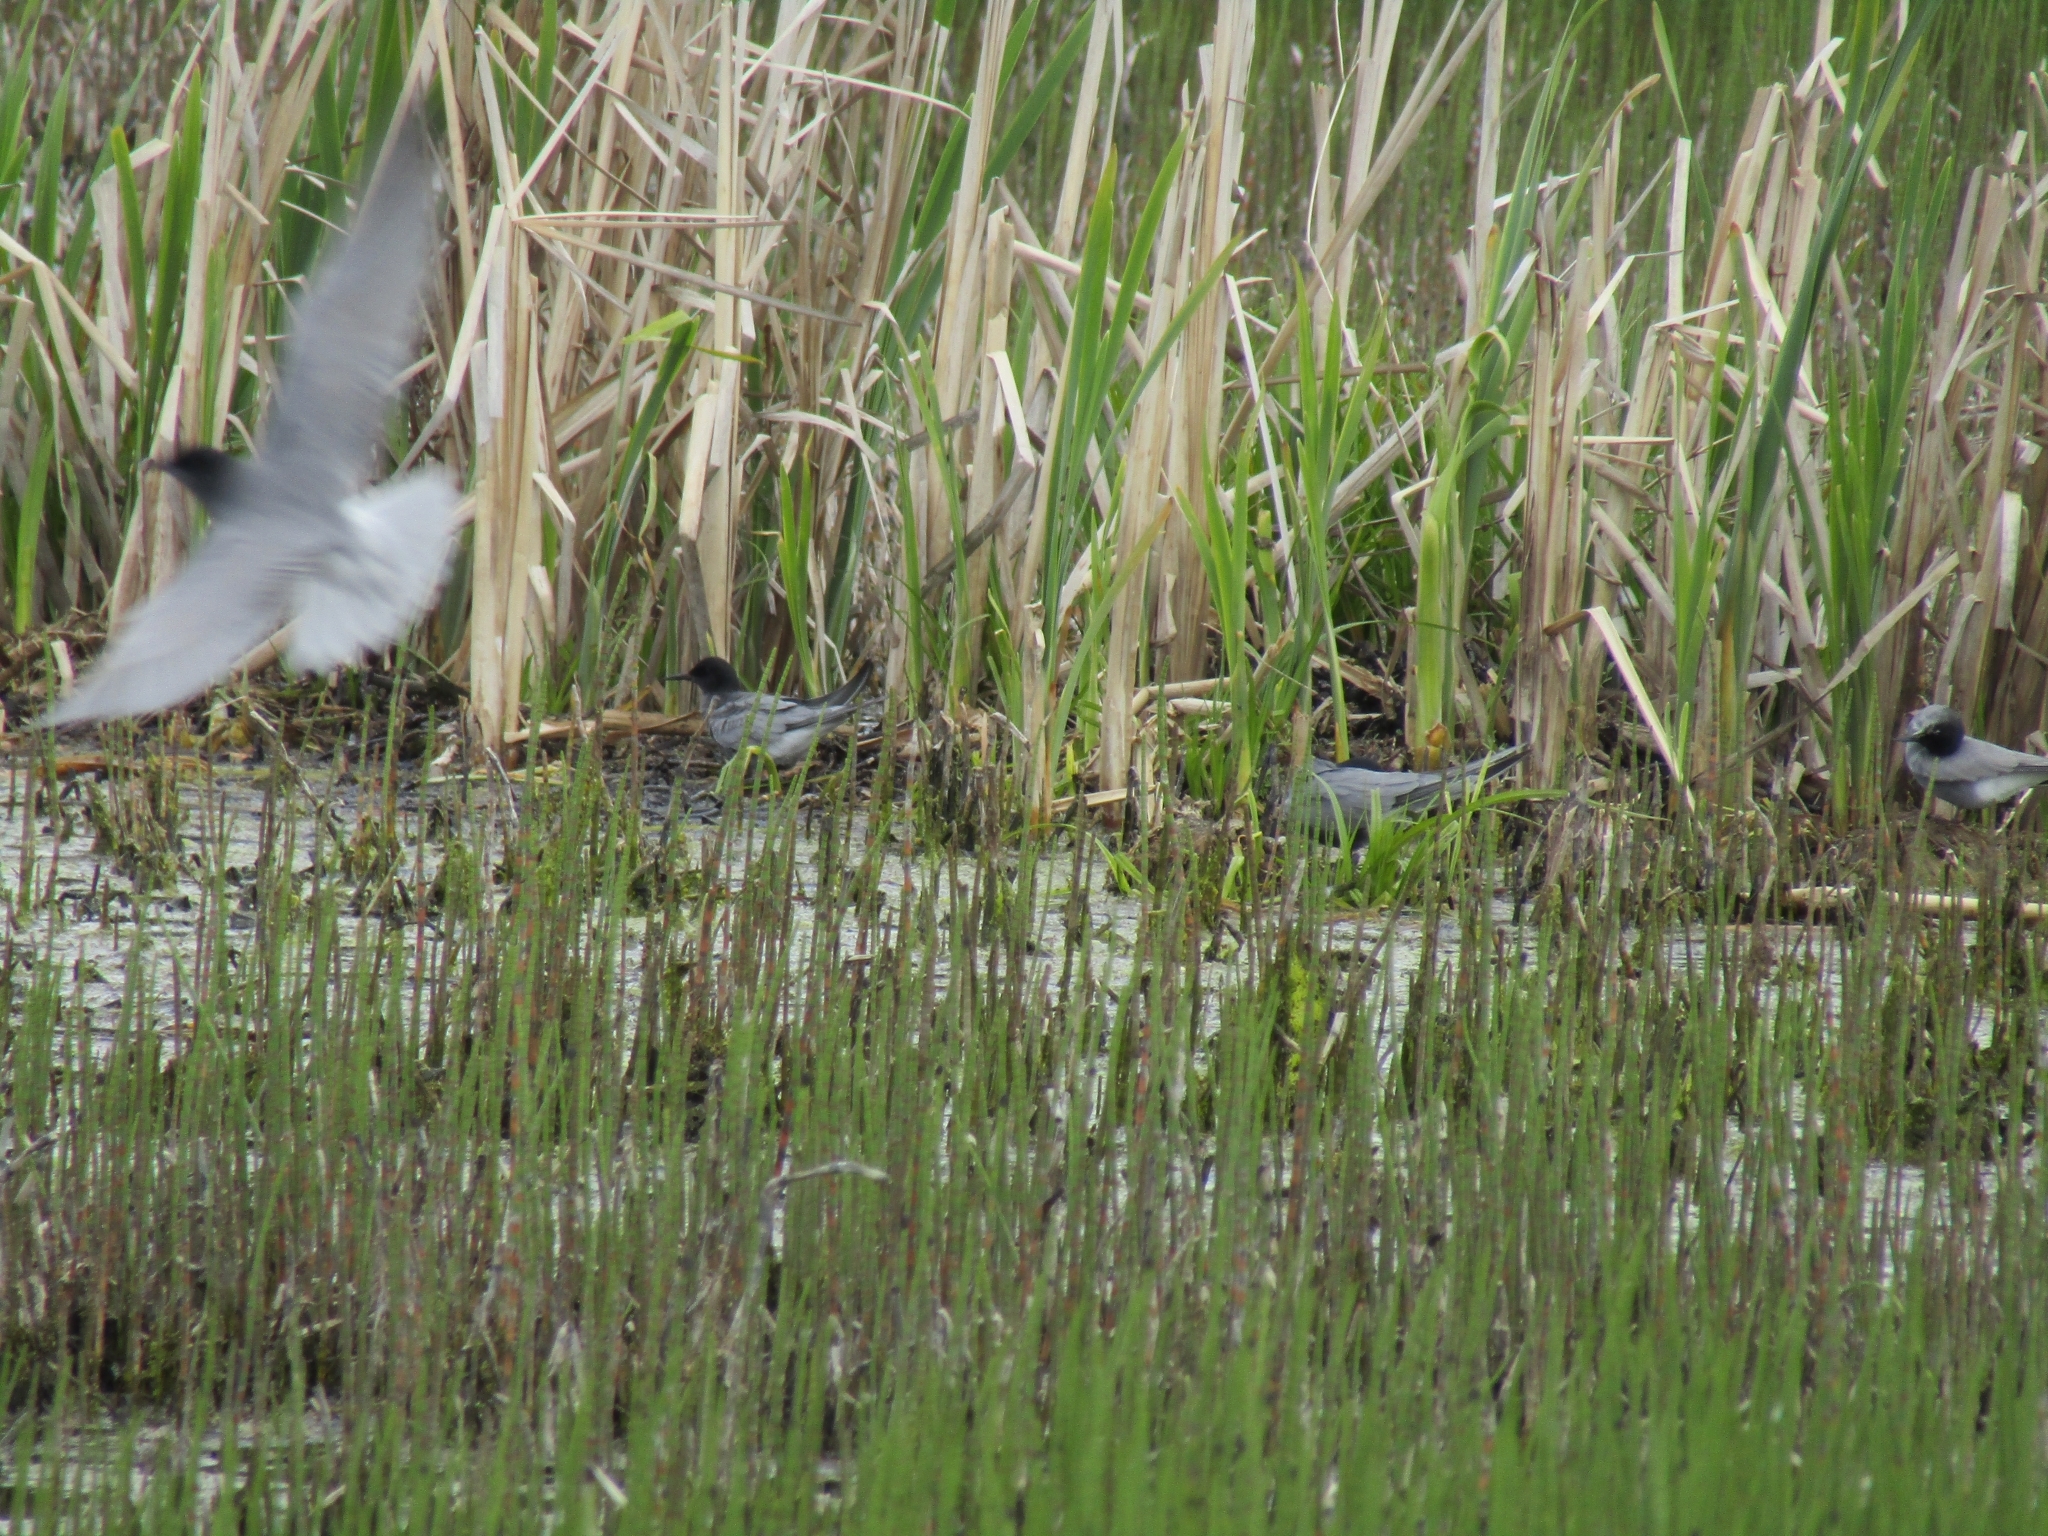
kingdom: Animalia
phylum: Chordata
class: Aves
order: Charadriiformes
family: Laridae
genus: Chlidonias
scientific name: Chlidonias niger
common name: Black tern
